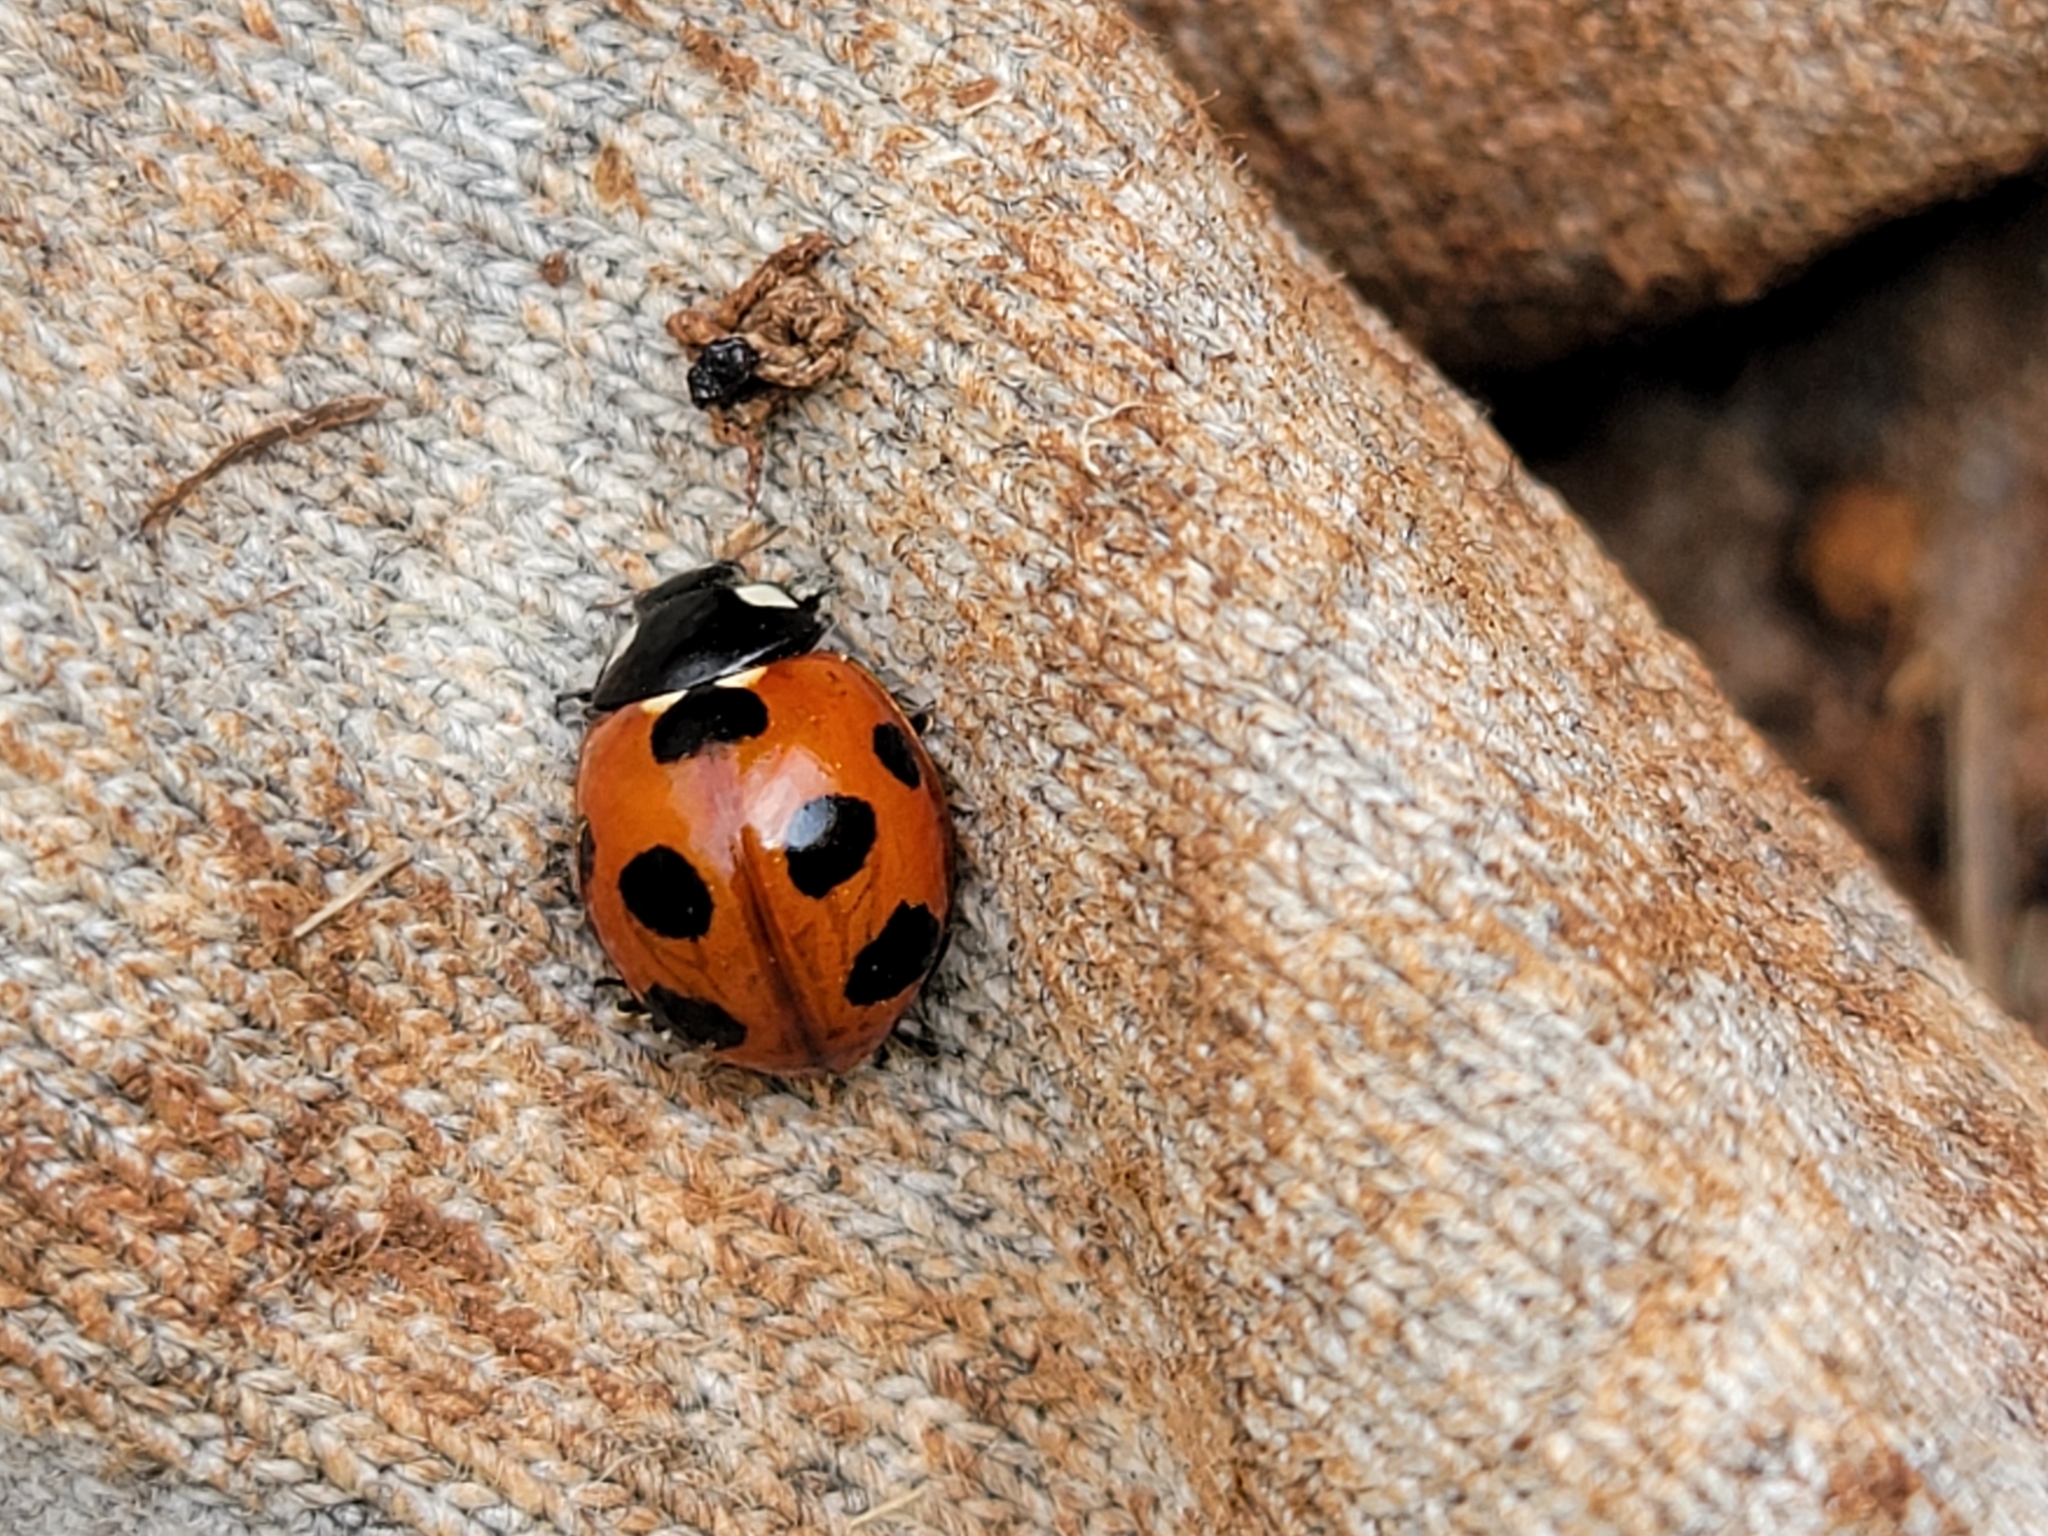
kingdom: Animalia
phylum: Arthropoda
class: Insecta
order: Coleoptera
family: Coccinellidae
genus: Coccinella
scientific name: Coccinella septempunctata
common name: Sevenspotted lady beetle
